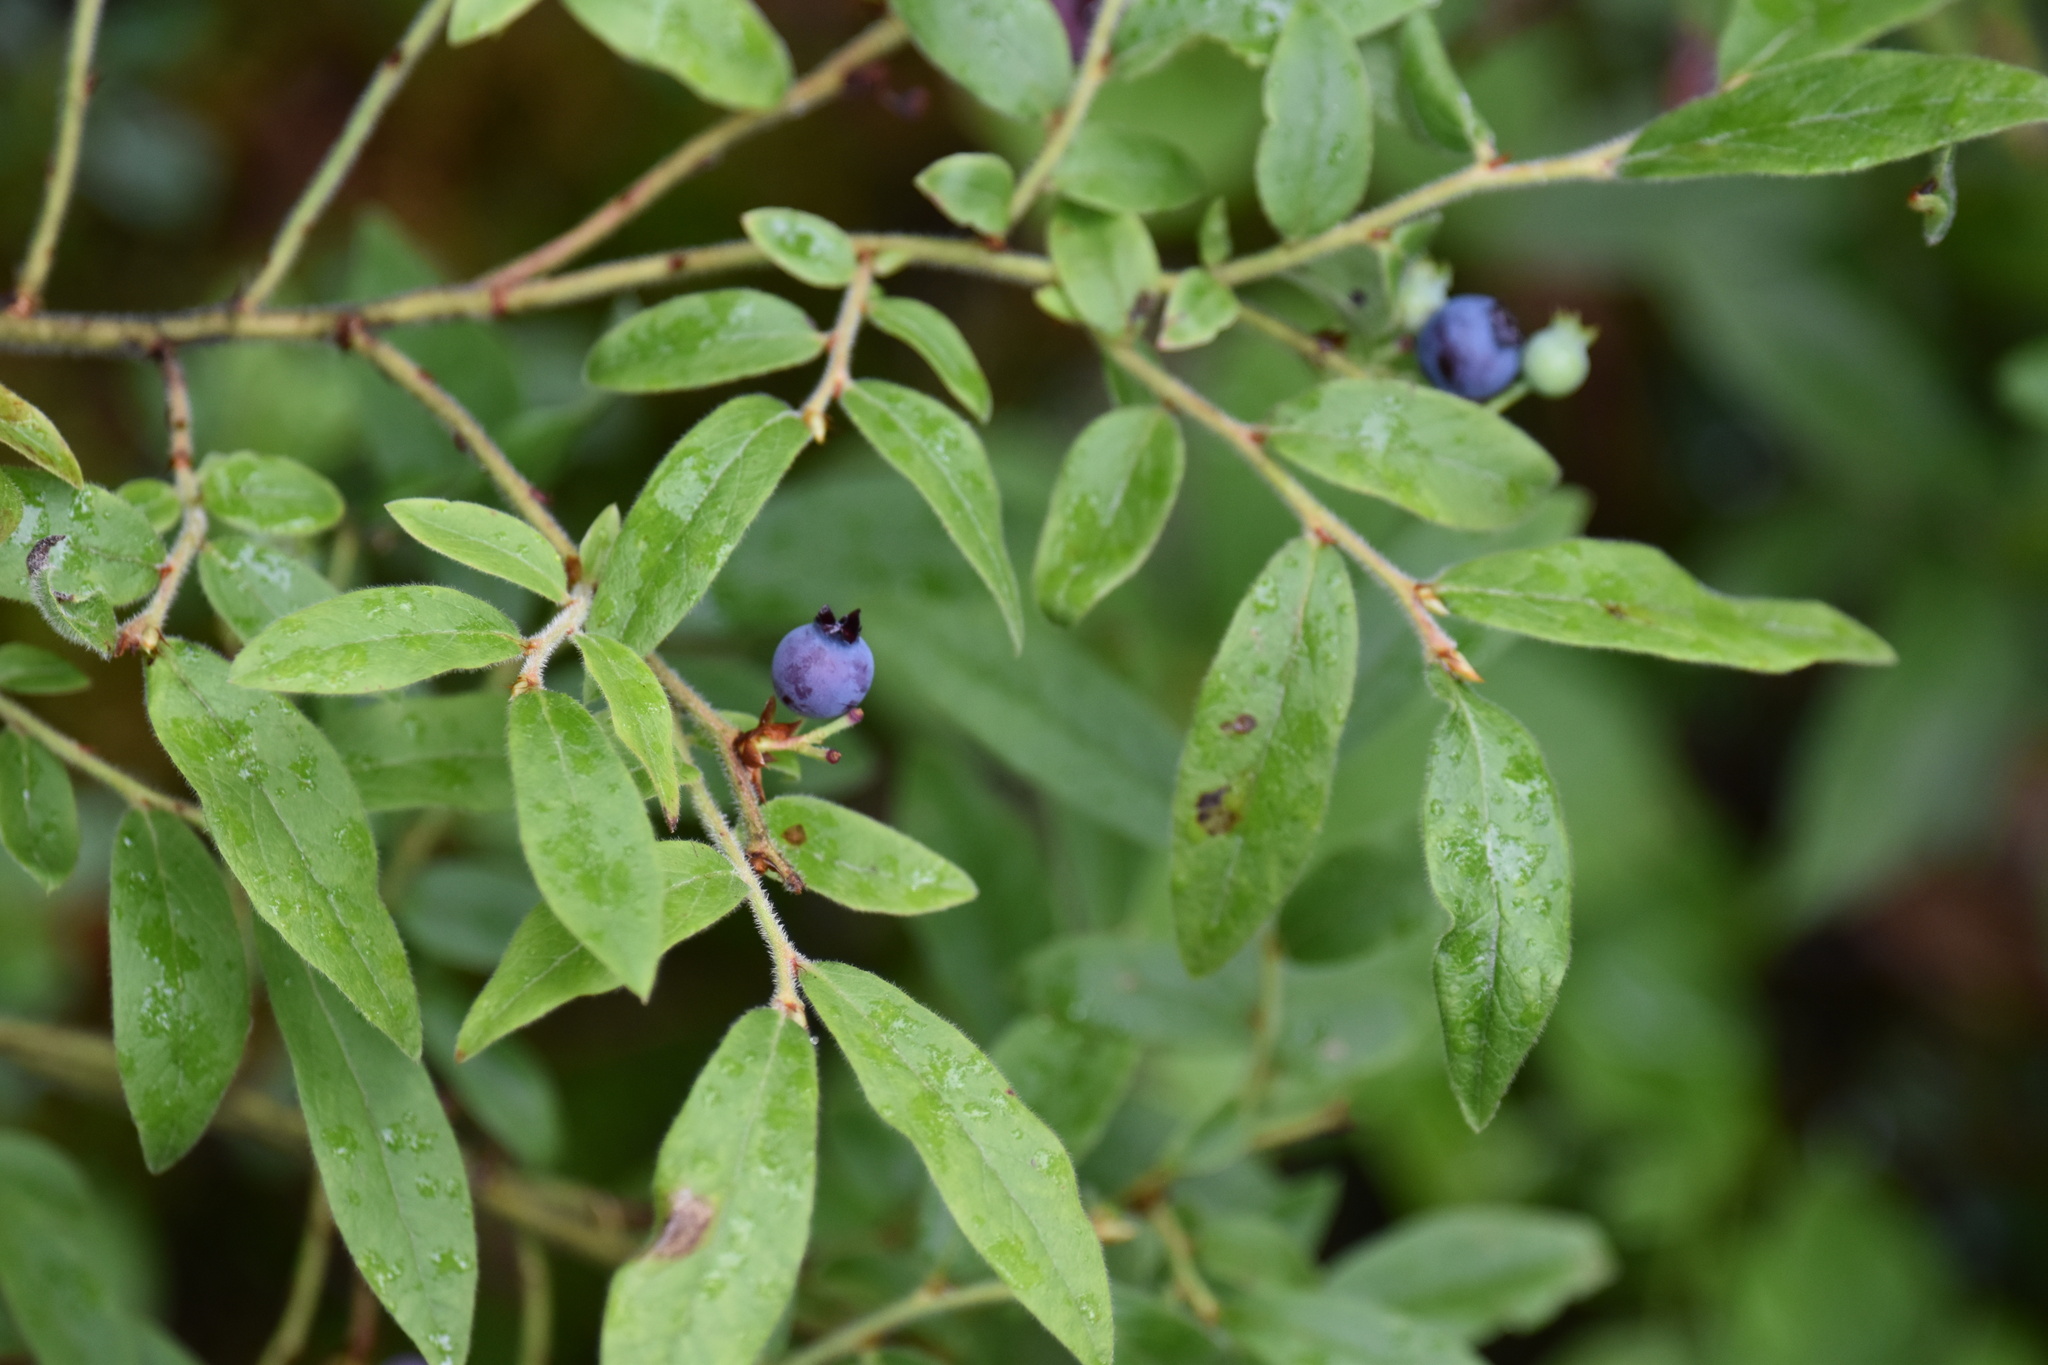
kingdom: Plantae
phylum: Tracheophyta
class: Magnoliopsida
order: Ericales
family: Ericaceae
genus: Vaccinium
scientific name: Vaccinium myrtilloides
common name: Canada blueberry
